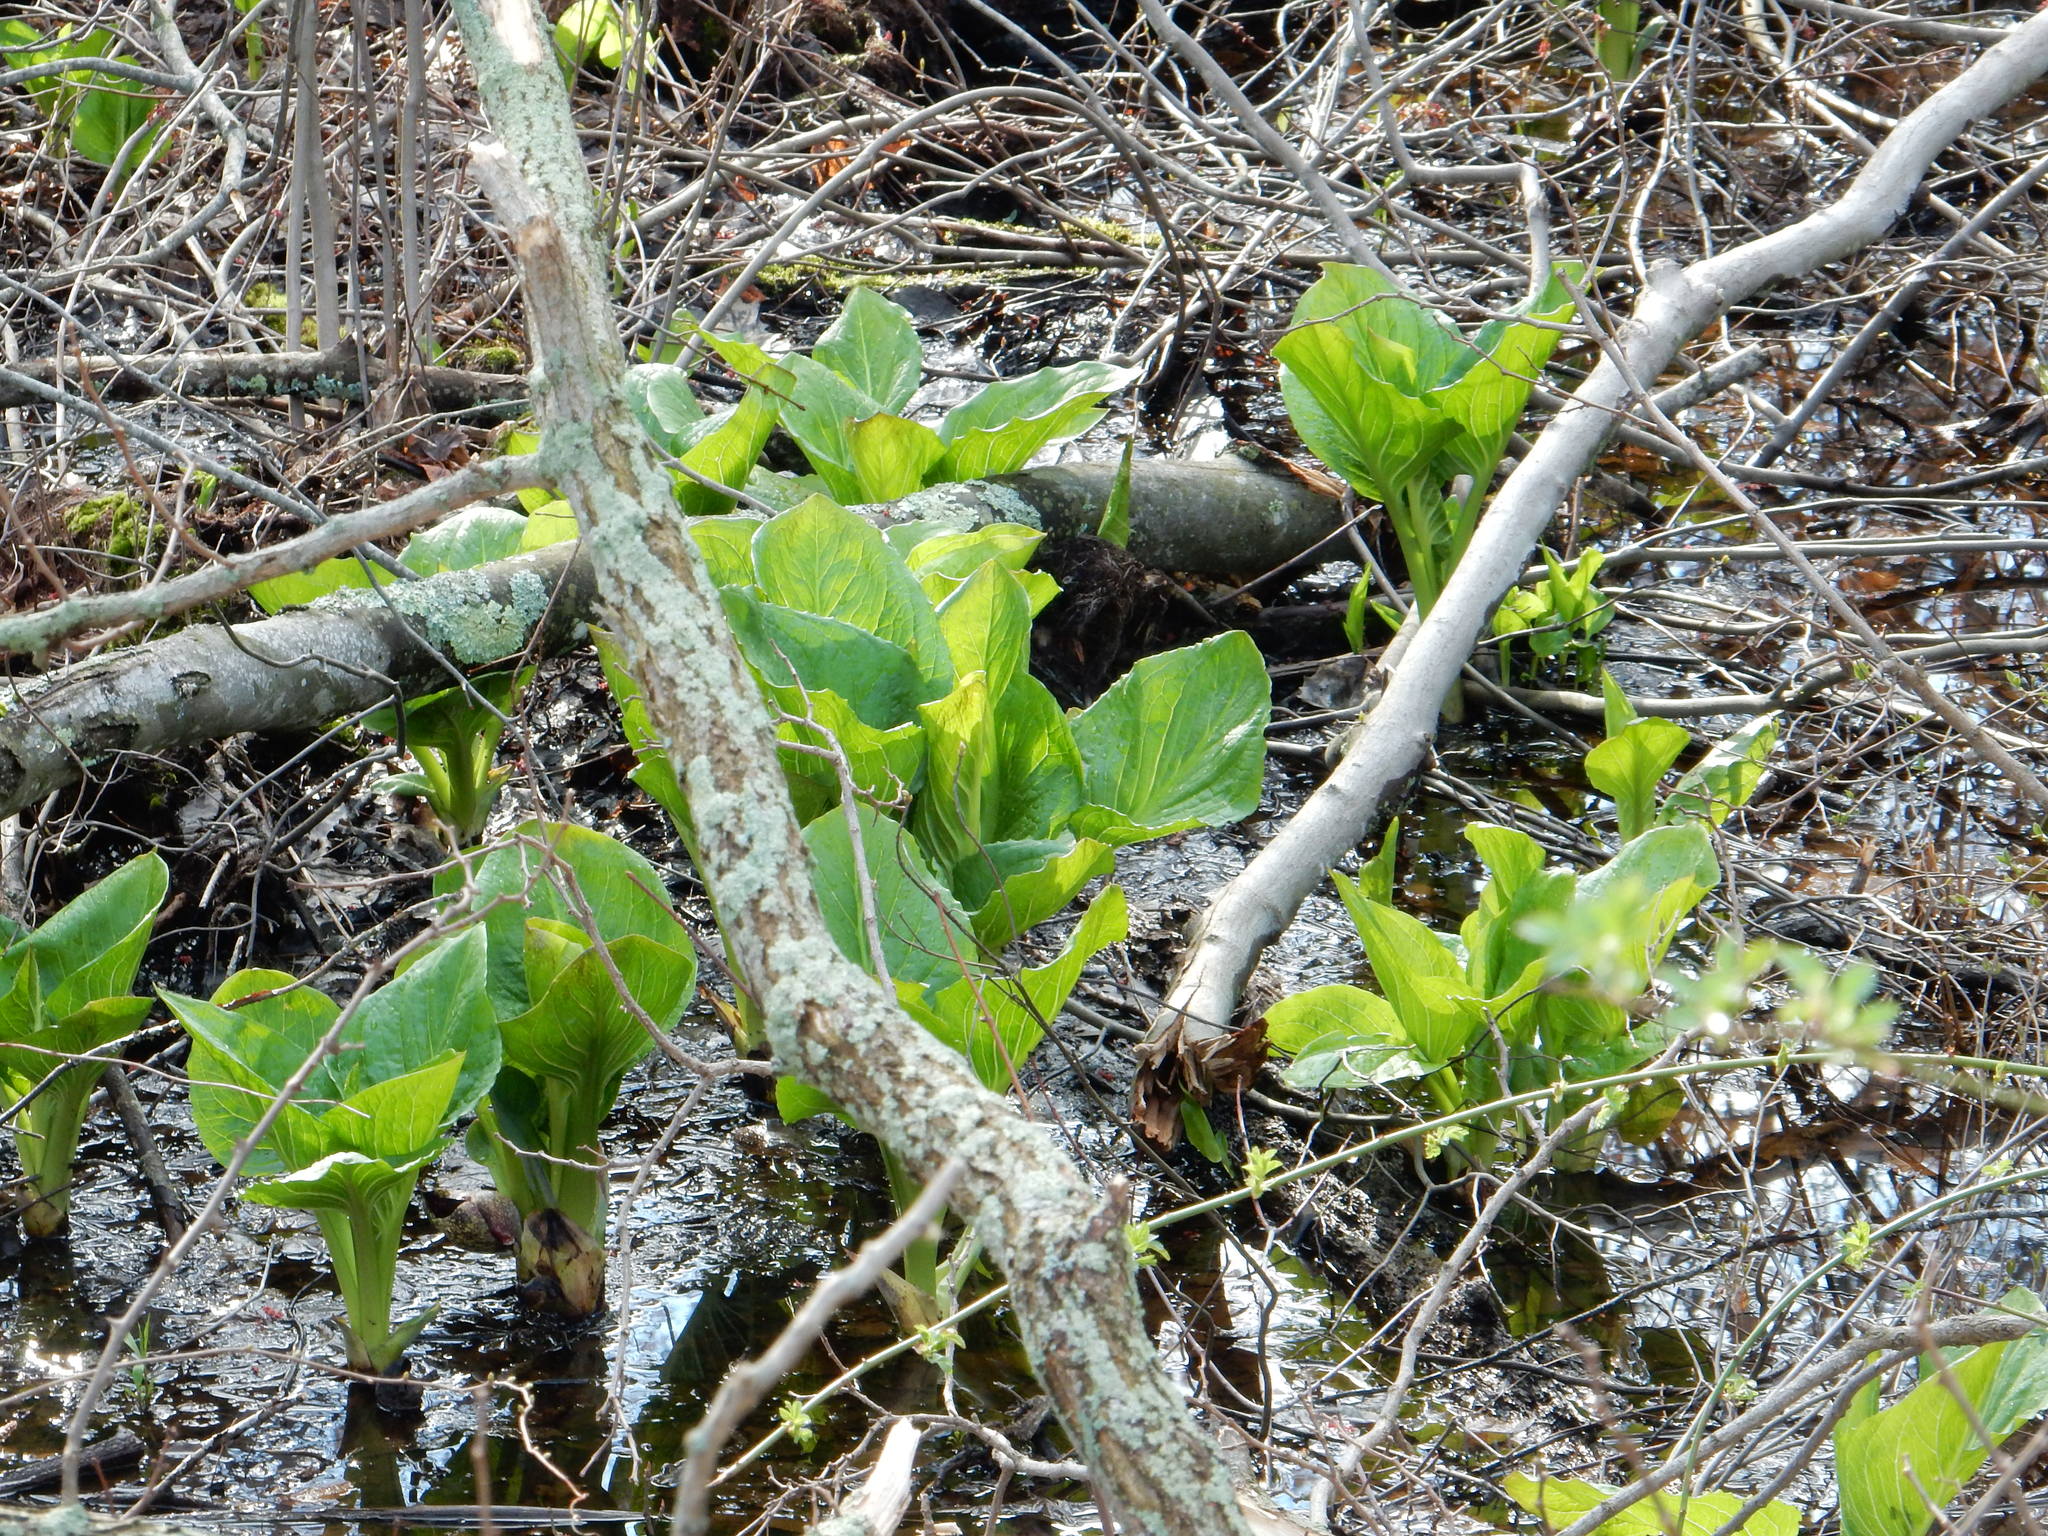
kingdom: Plantae
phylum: Tracheophyta
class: Liliopsida
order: Alismatales
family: Araceae
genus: Symplocarpus
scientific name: Symplocarpus foetidus
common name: Eastern skunk cabbage
